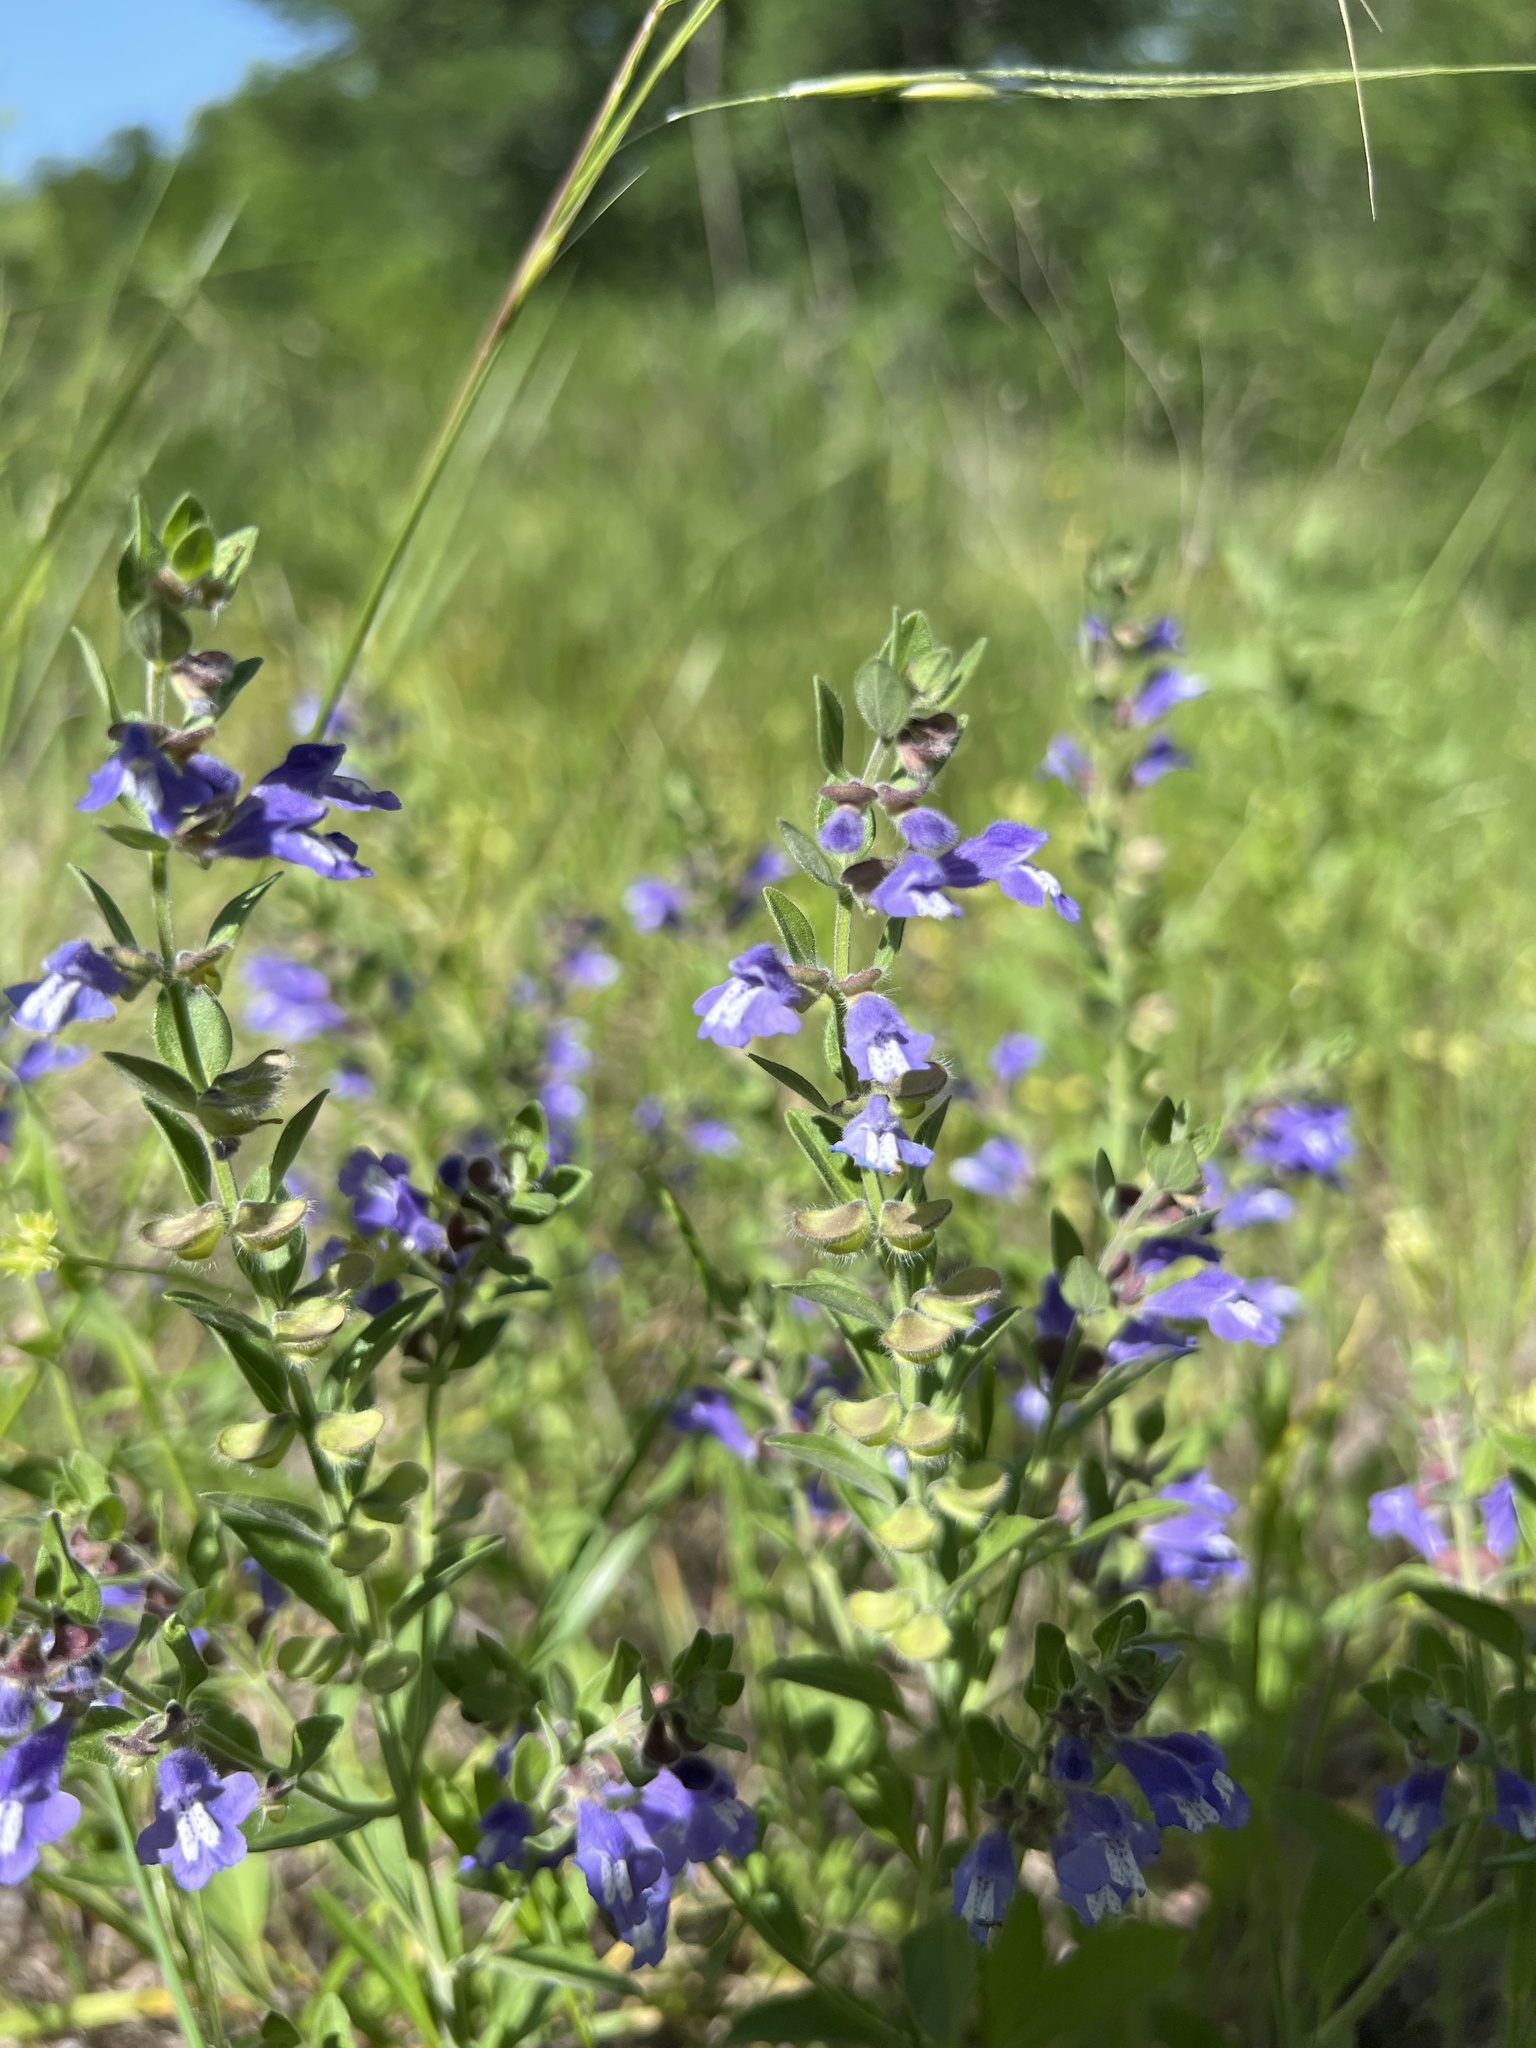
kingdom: Plantae
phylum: Tracheophyta
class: Magnoliopsida
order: Lamiales
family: Lamiaceae
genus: Scutellaria
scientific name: Scutellaria drummondii
